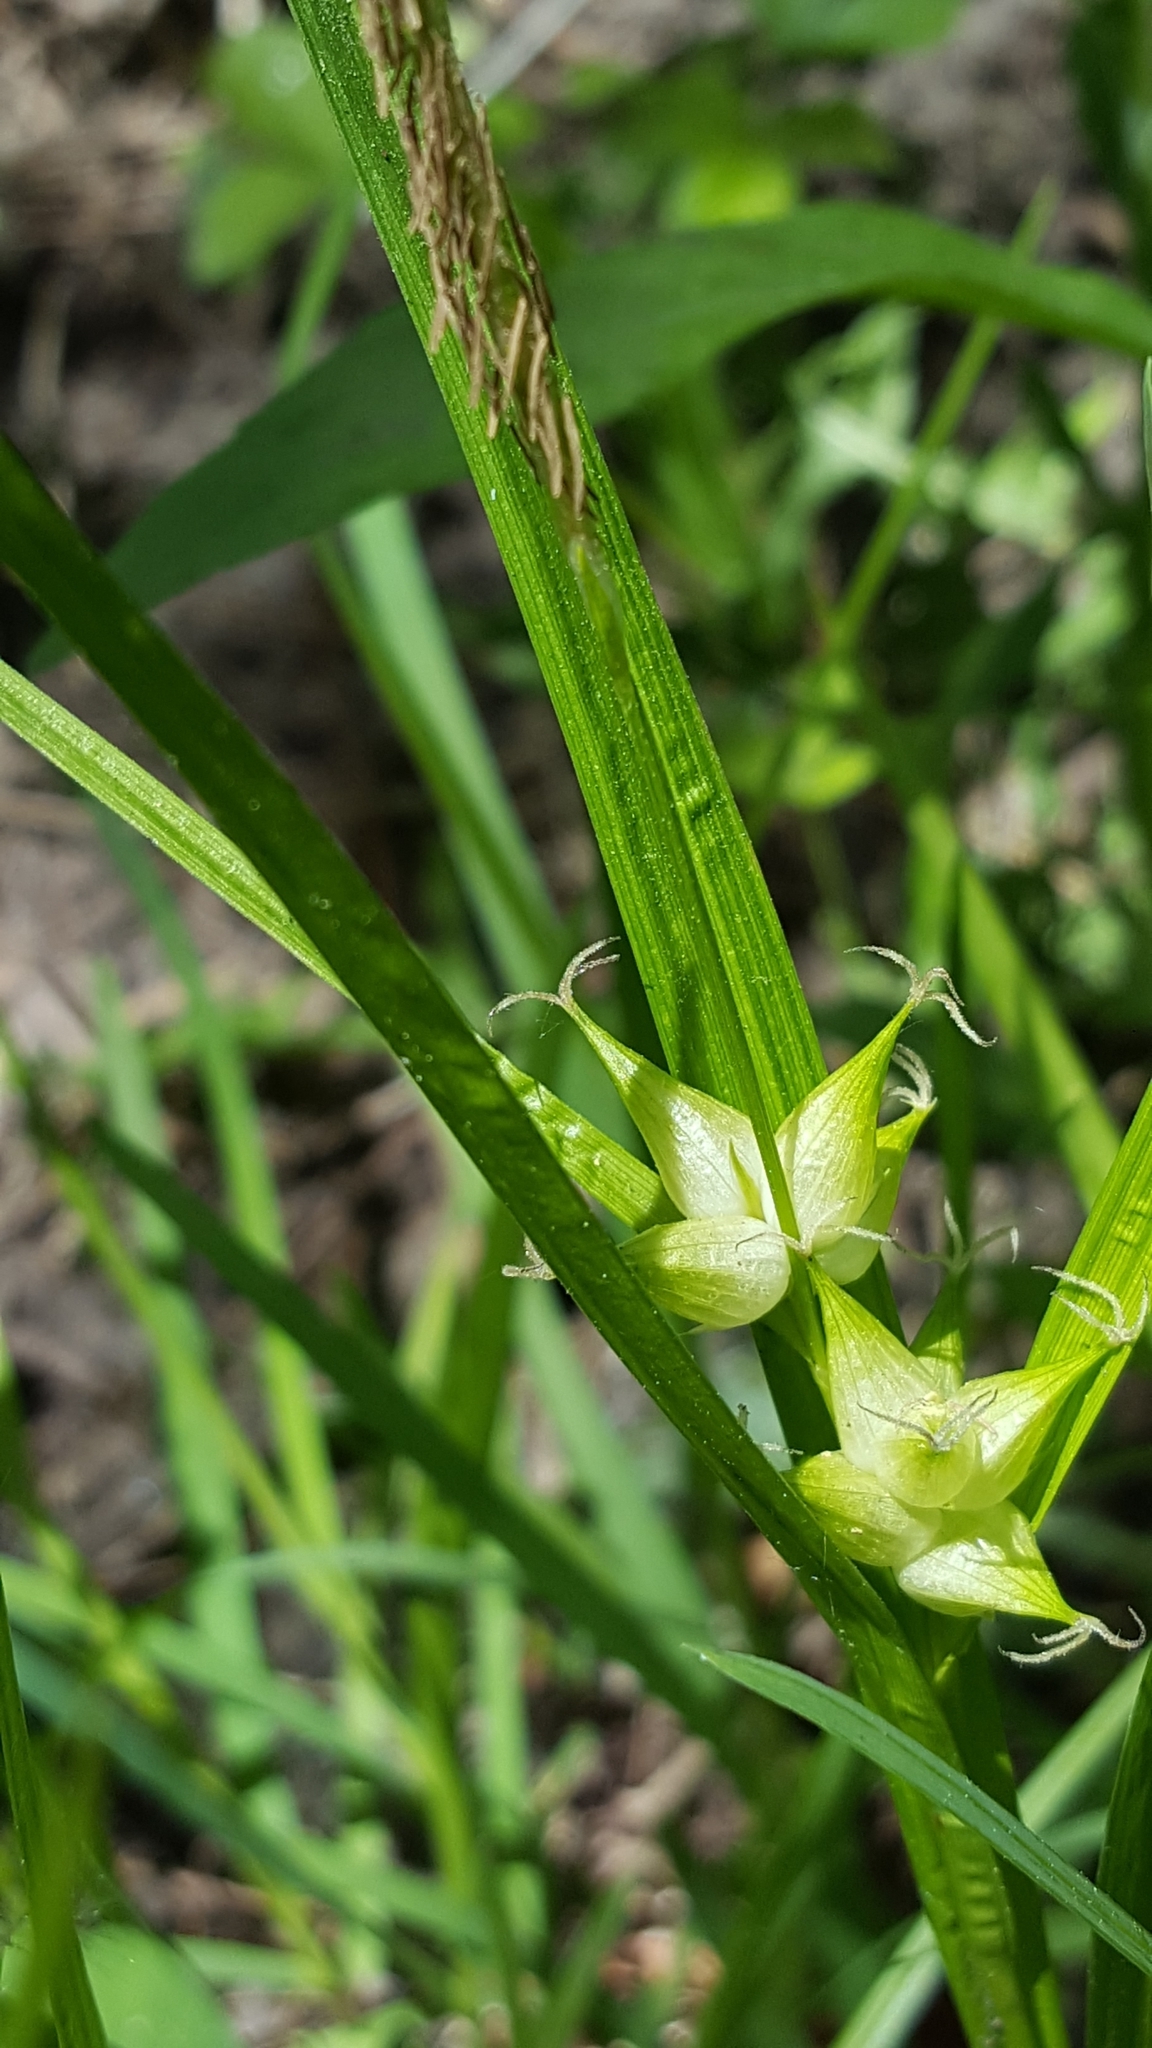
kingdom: Plantae
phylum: Tracheophyta
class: Liliopsida
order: Poales
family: Cyperaceae
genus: Carex
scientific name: Carex intumescens
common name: Greater bladder sedge
